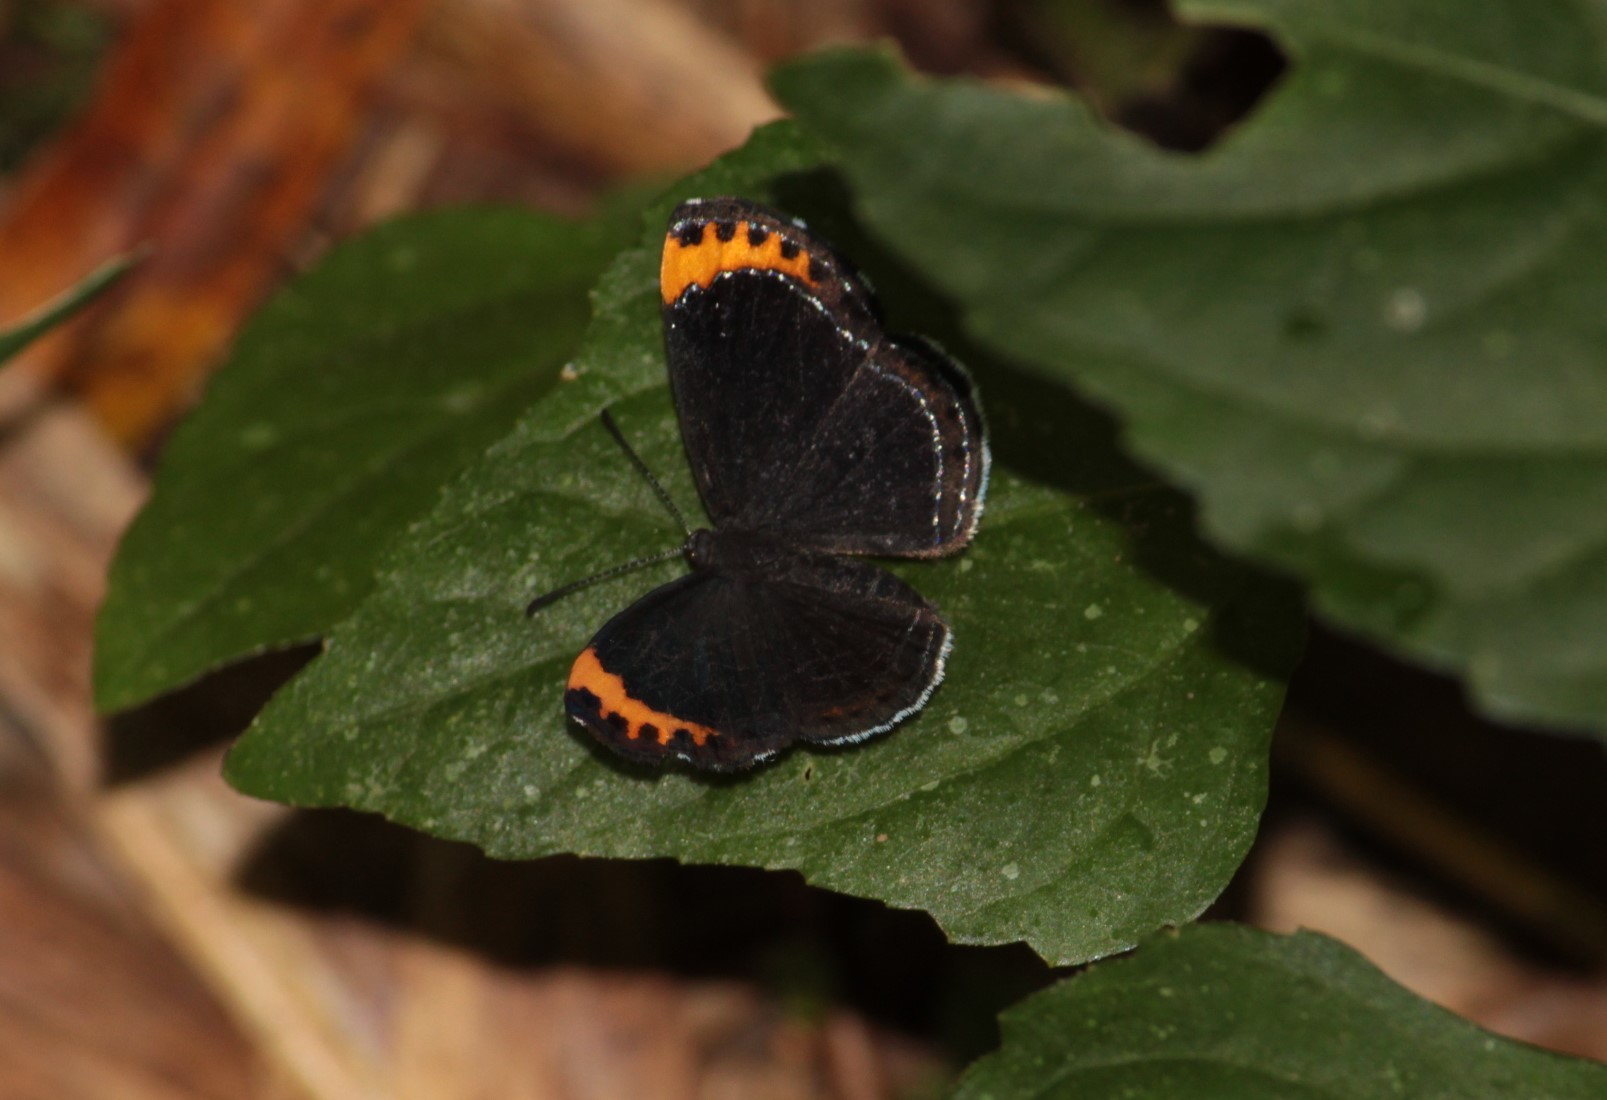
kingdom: Animalia
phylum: Arthropoda
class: Insecta
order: Lepidoptera
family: Riodinidae
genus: Nelone
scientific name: Nelone cadmeis
